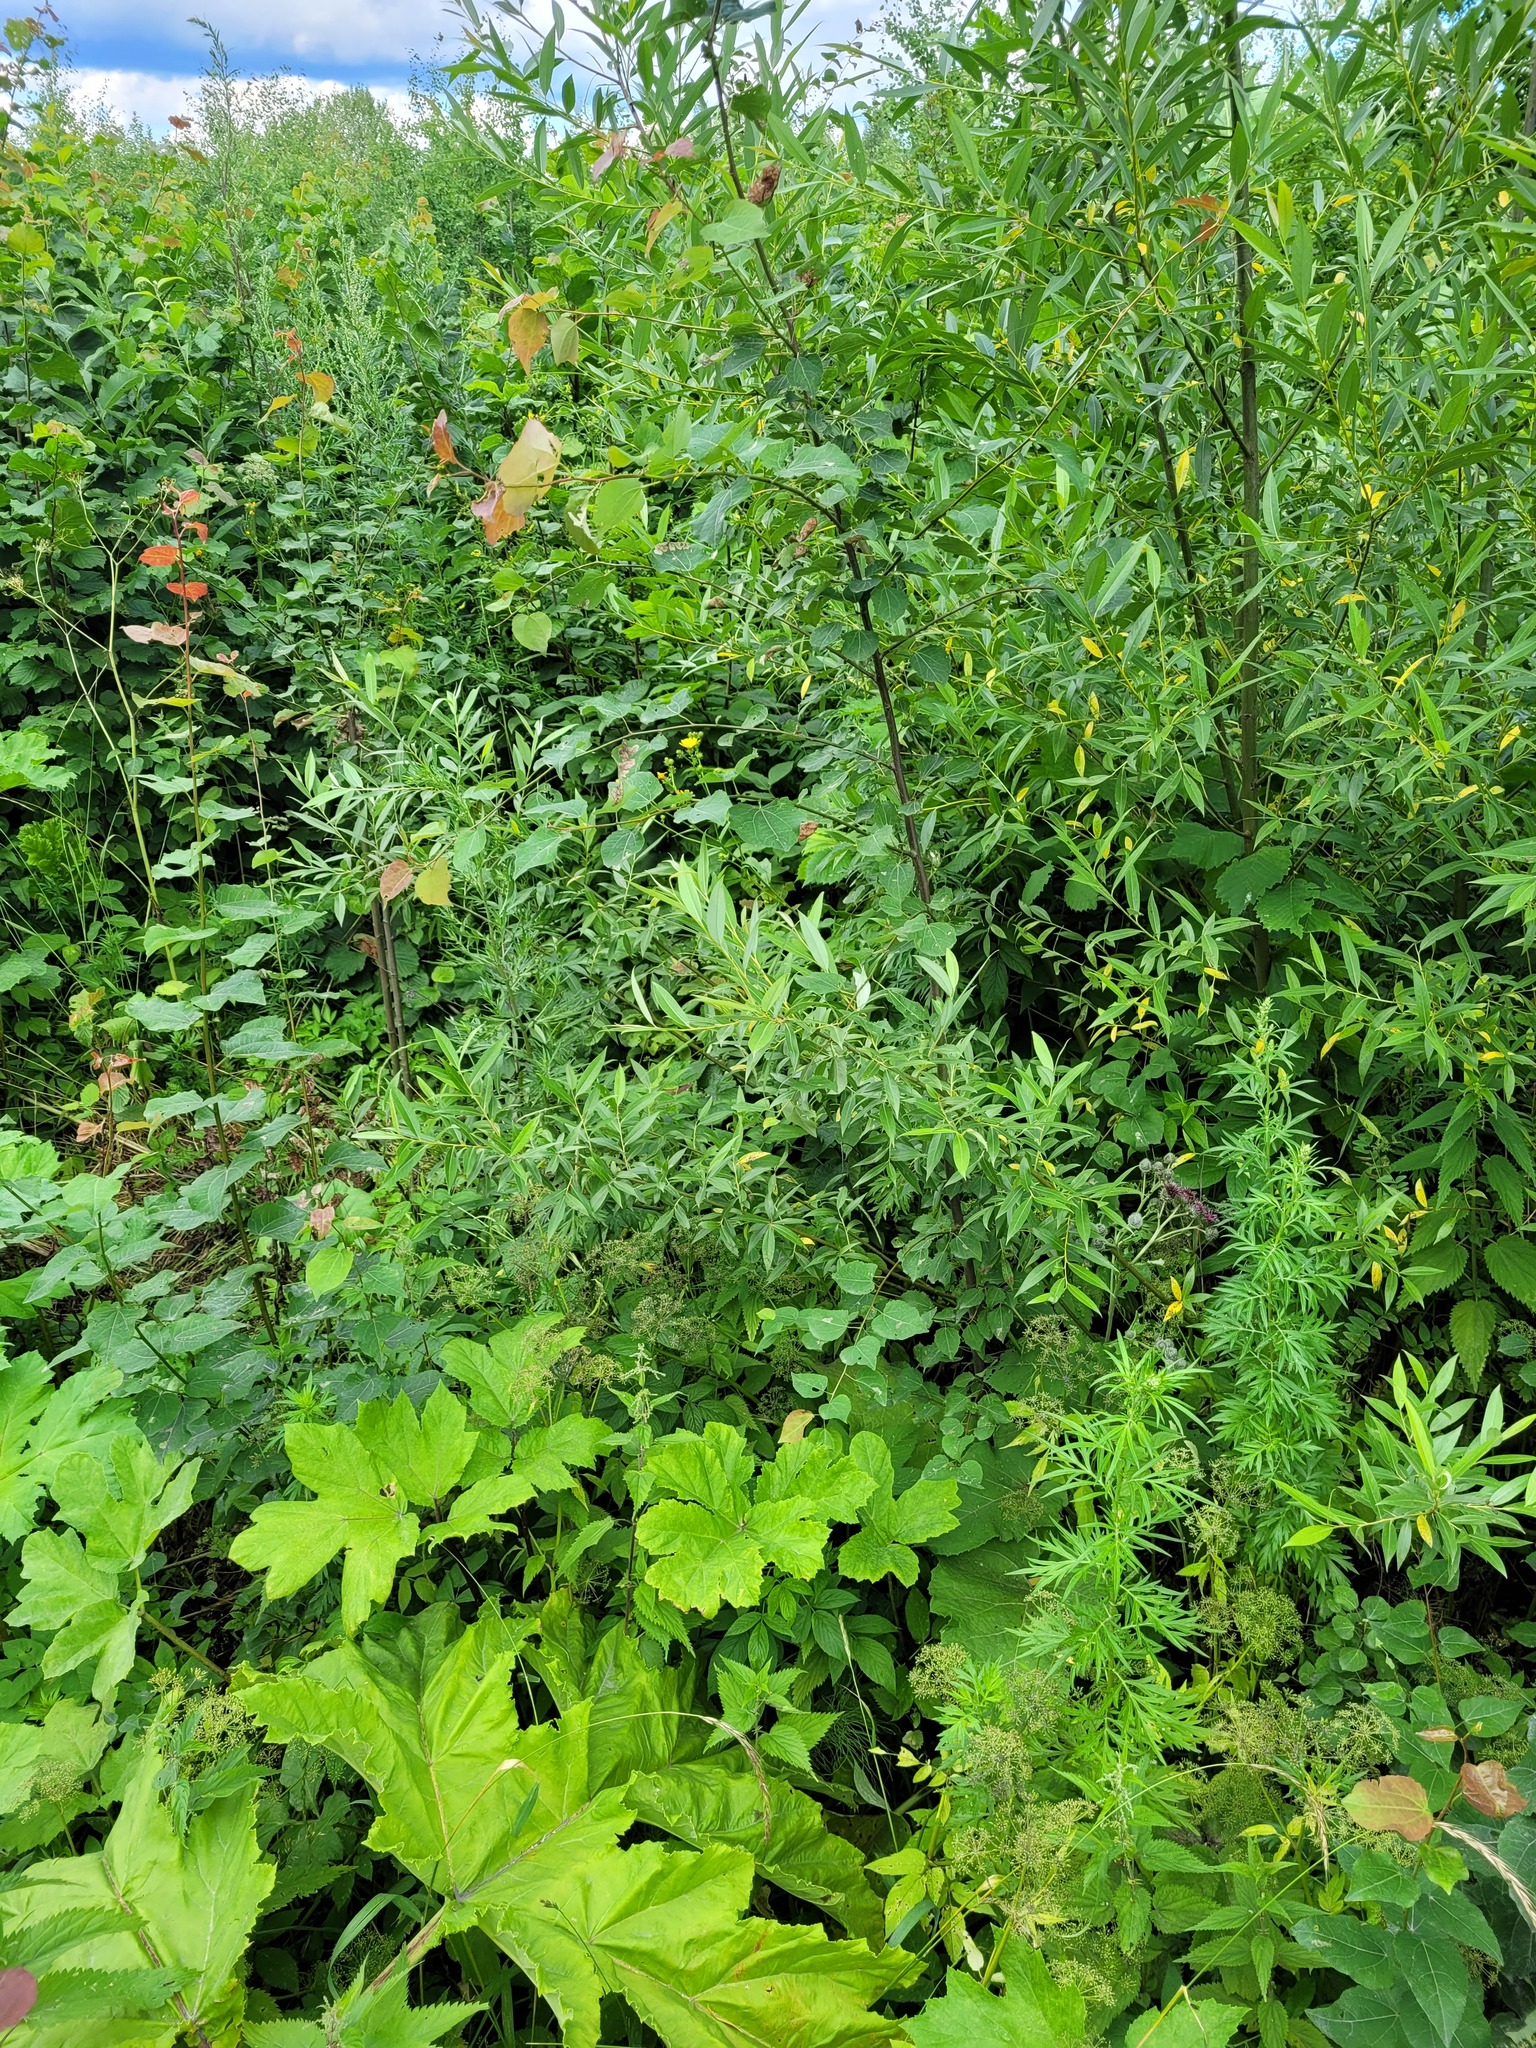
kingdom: Plantae
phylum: Tracheophyta
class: Magnoliopsida
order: Malpighiales
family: Salicaceae
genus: Salix
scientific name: Salix fragilis
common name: Crack willow
